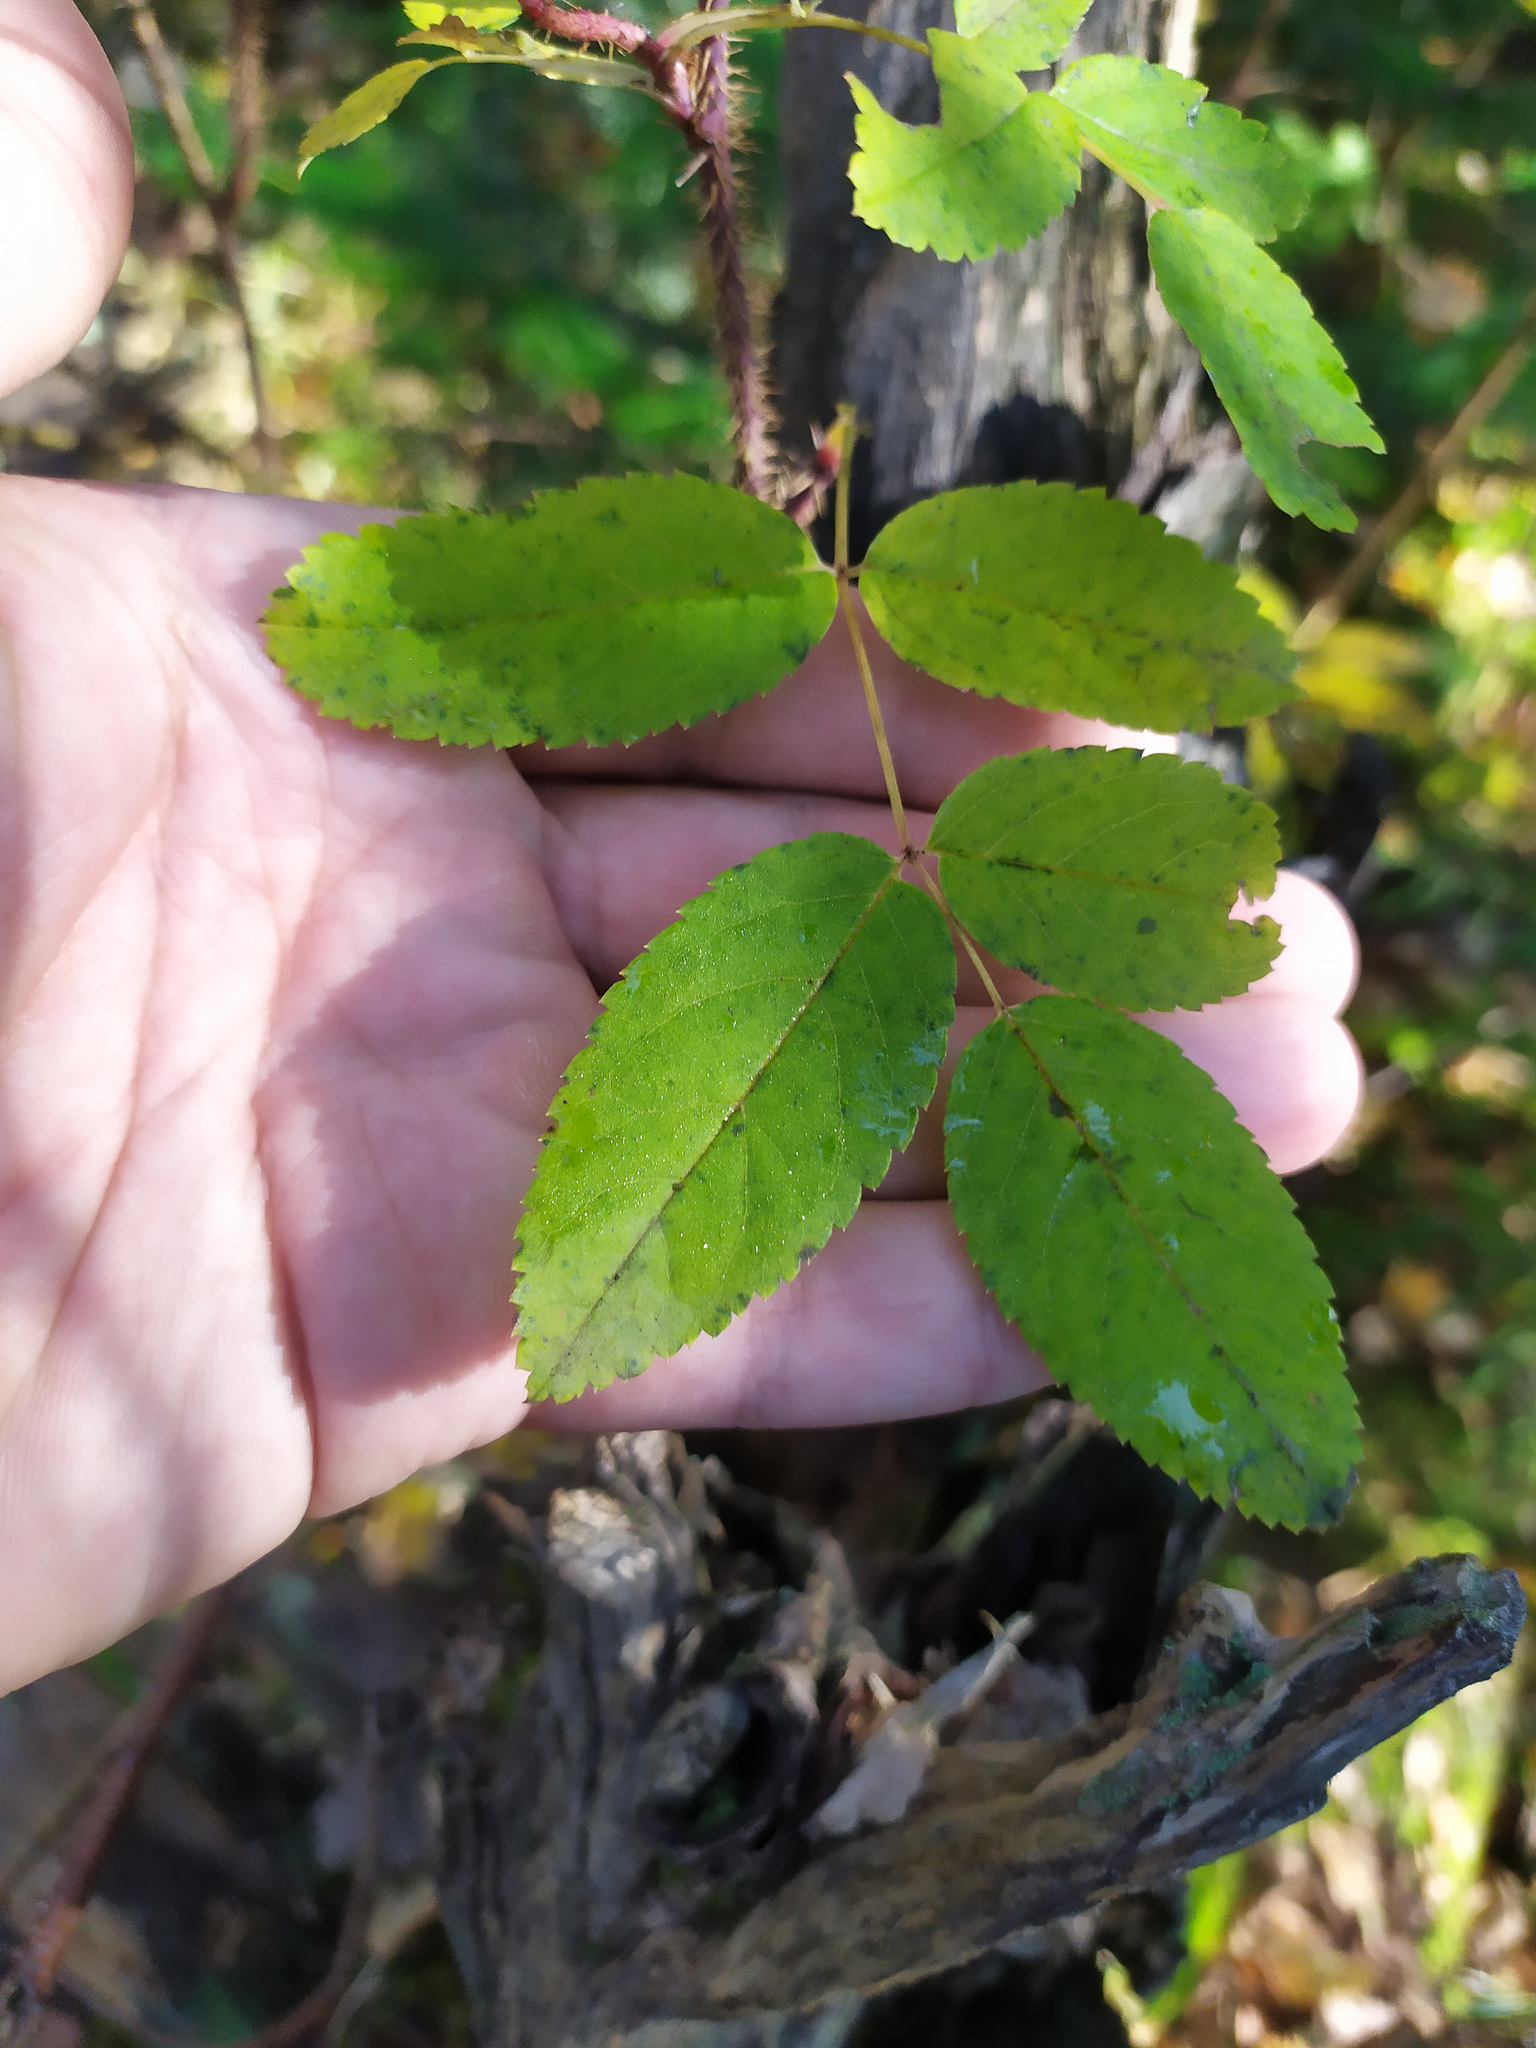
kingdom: Plantae
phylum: Tracheophyta
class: Magnoliopsida
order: Rosales
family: Rosaceae
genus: Rosa
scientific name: Rosa acicularis
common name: Prickly rose
